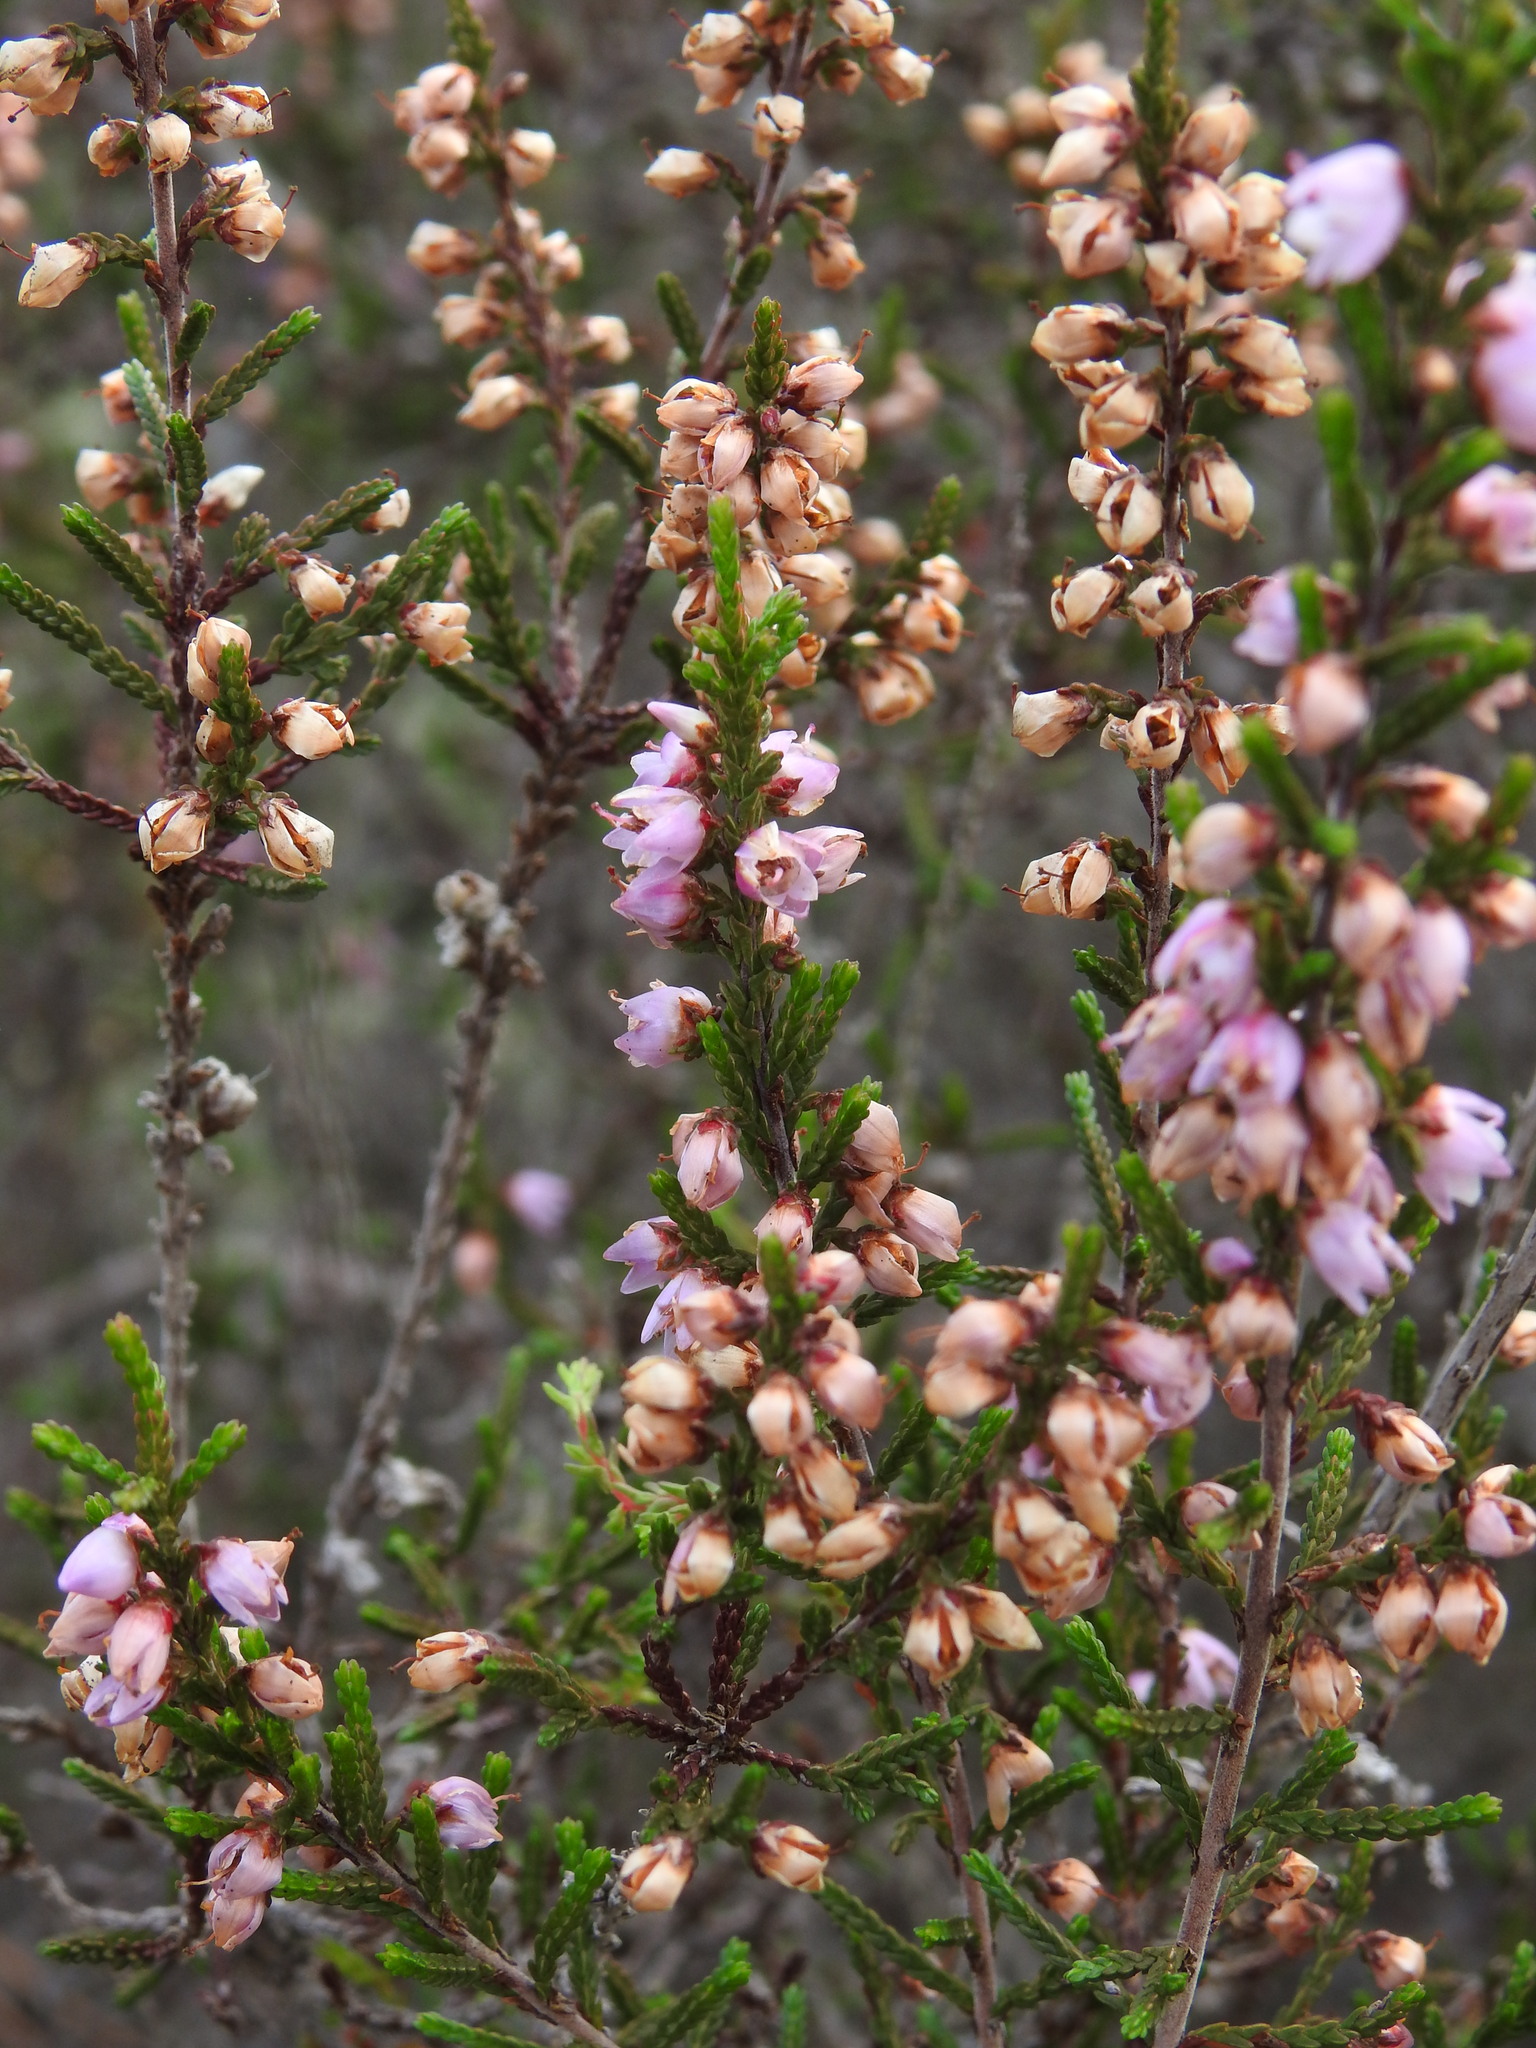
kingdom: Plantae
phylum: Tracheophyta
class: Magnoliopsida
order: Ericales
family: Ericaceae
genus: Calluna
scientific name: Calluna vulgaris
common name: Heather
